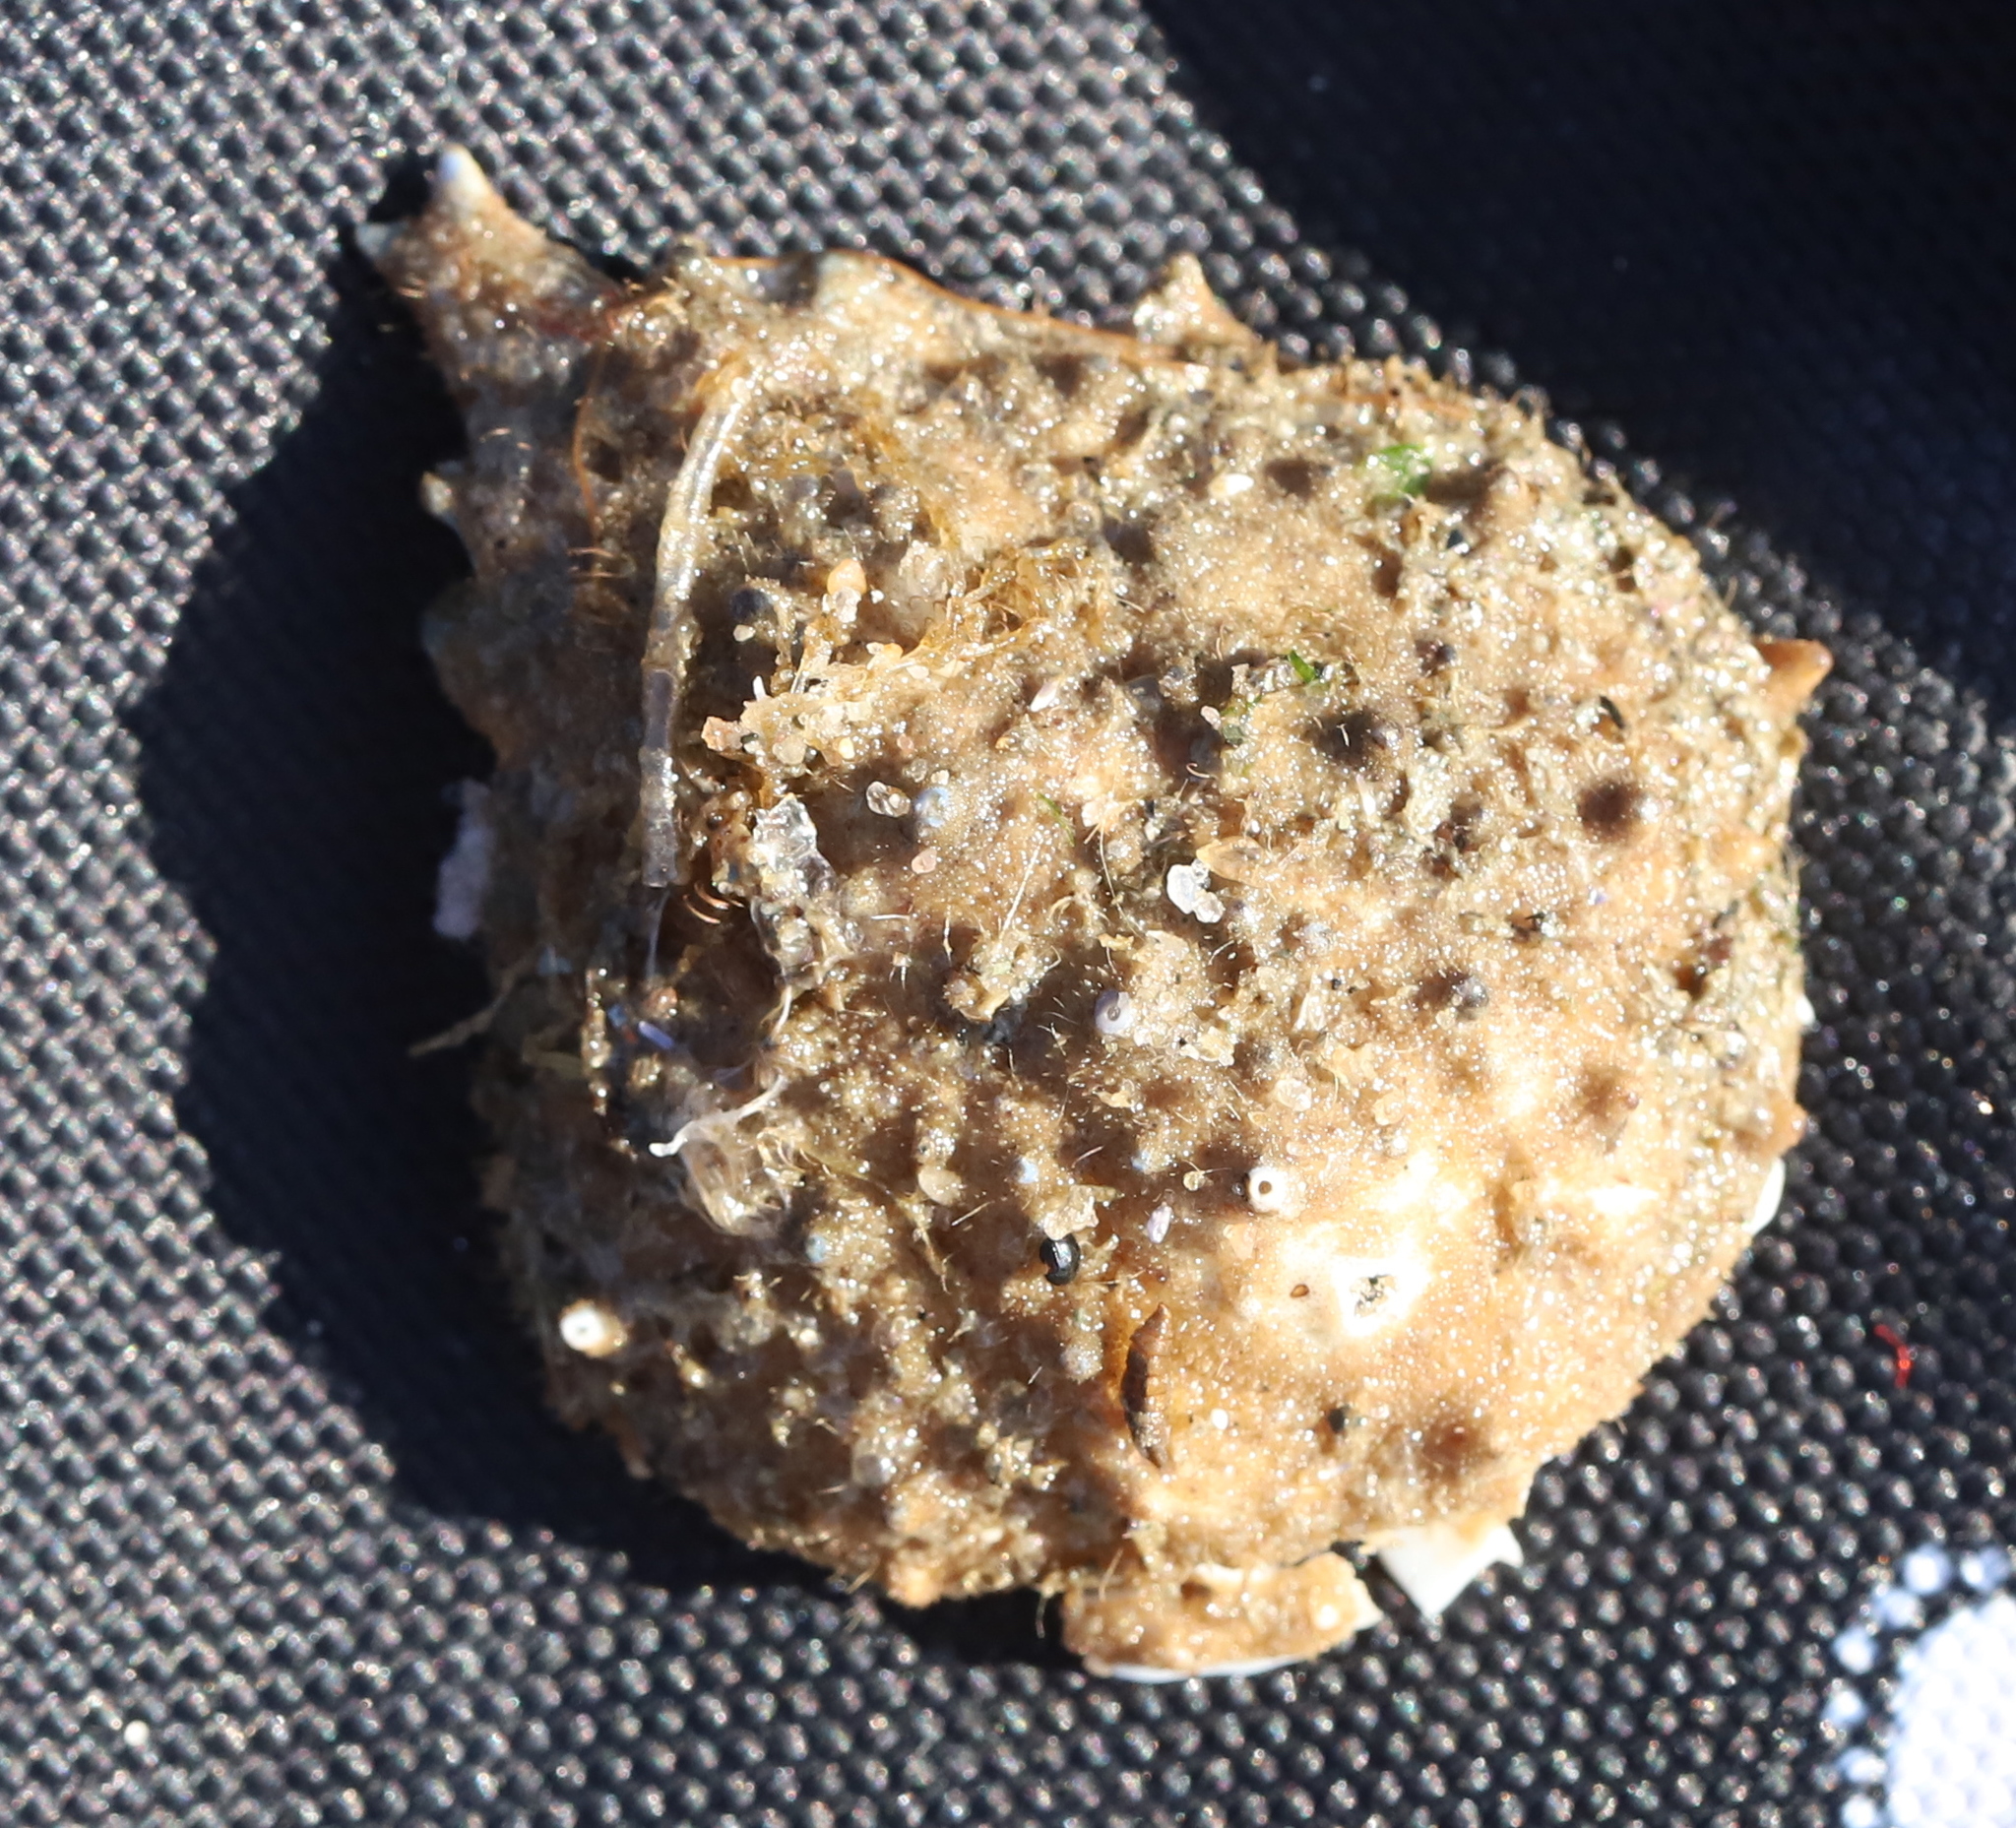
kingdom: Animalia
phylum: Arthropoda
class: Malacostraca
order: Decapoda
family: Epialtidae
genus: Libinia
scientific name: Libinia emarginata
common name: Common spider crab
